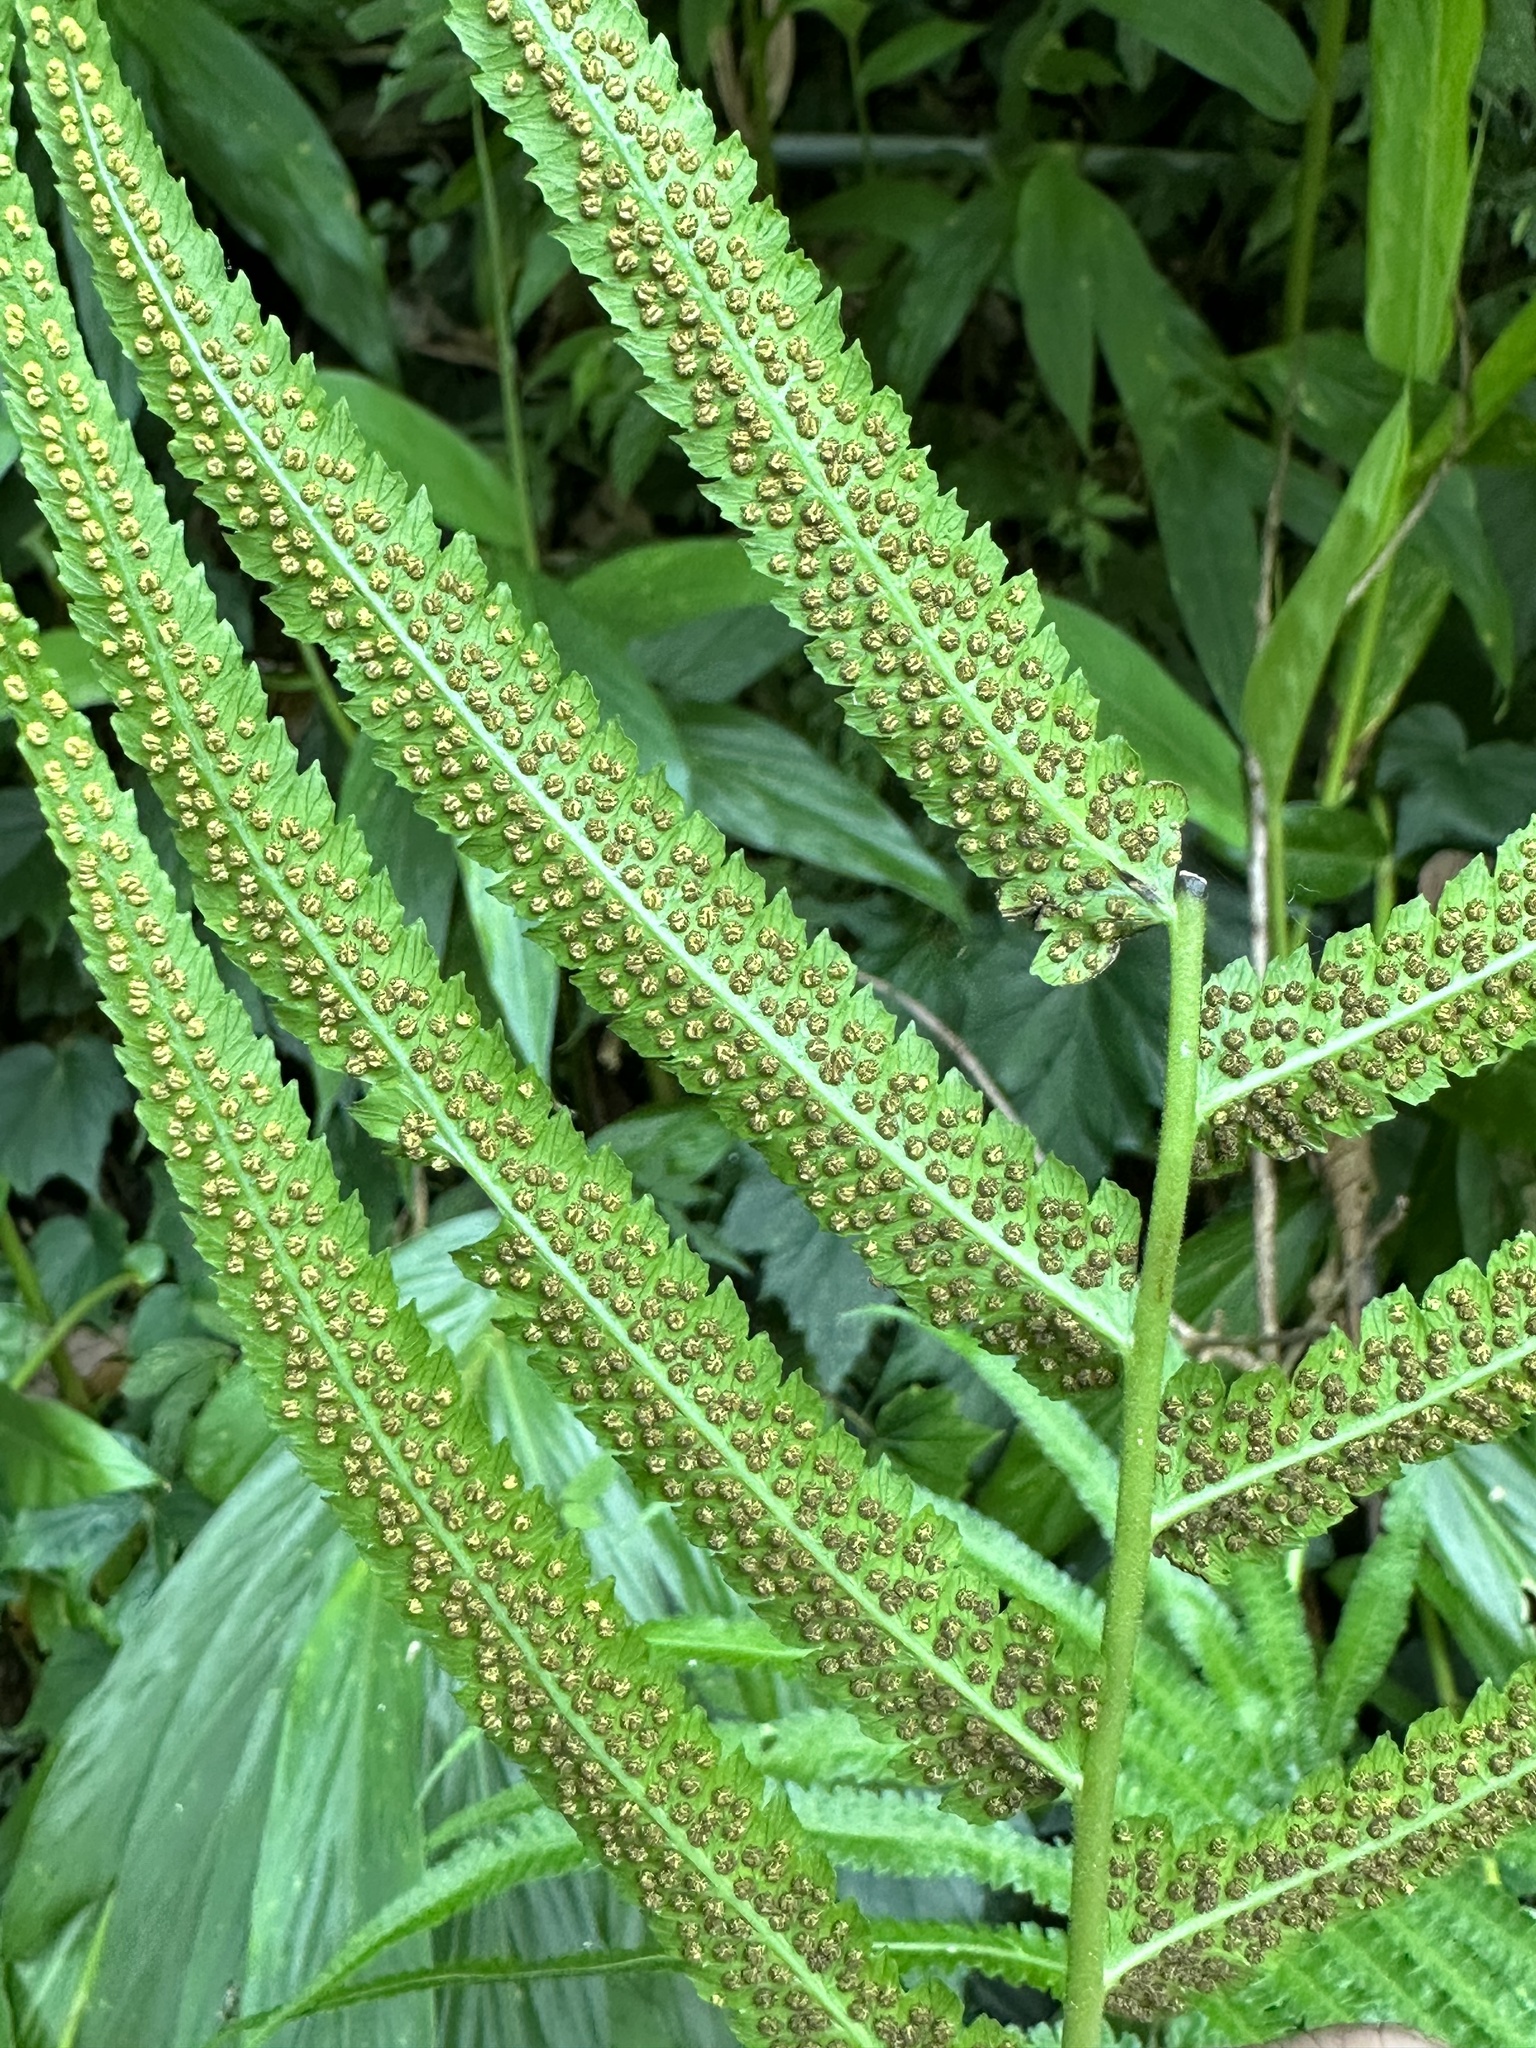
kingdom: Plantae
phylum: Tracheophyta
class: Polypodiopsida
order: Polypodiales
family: Thelypteridaceae
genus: Reholttumia
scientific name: Reholttumia truncata
